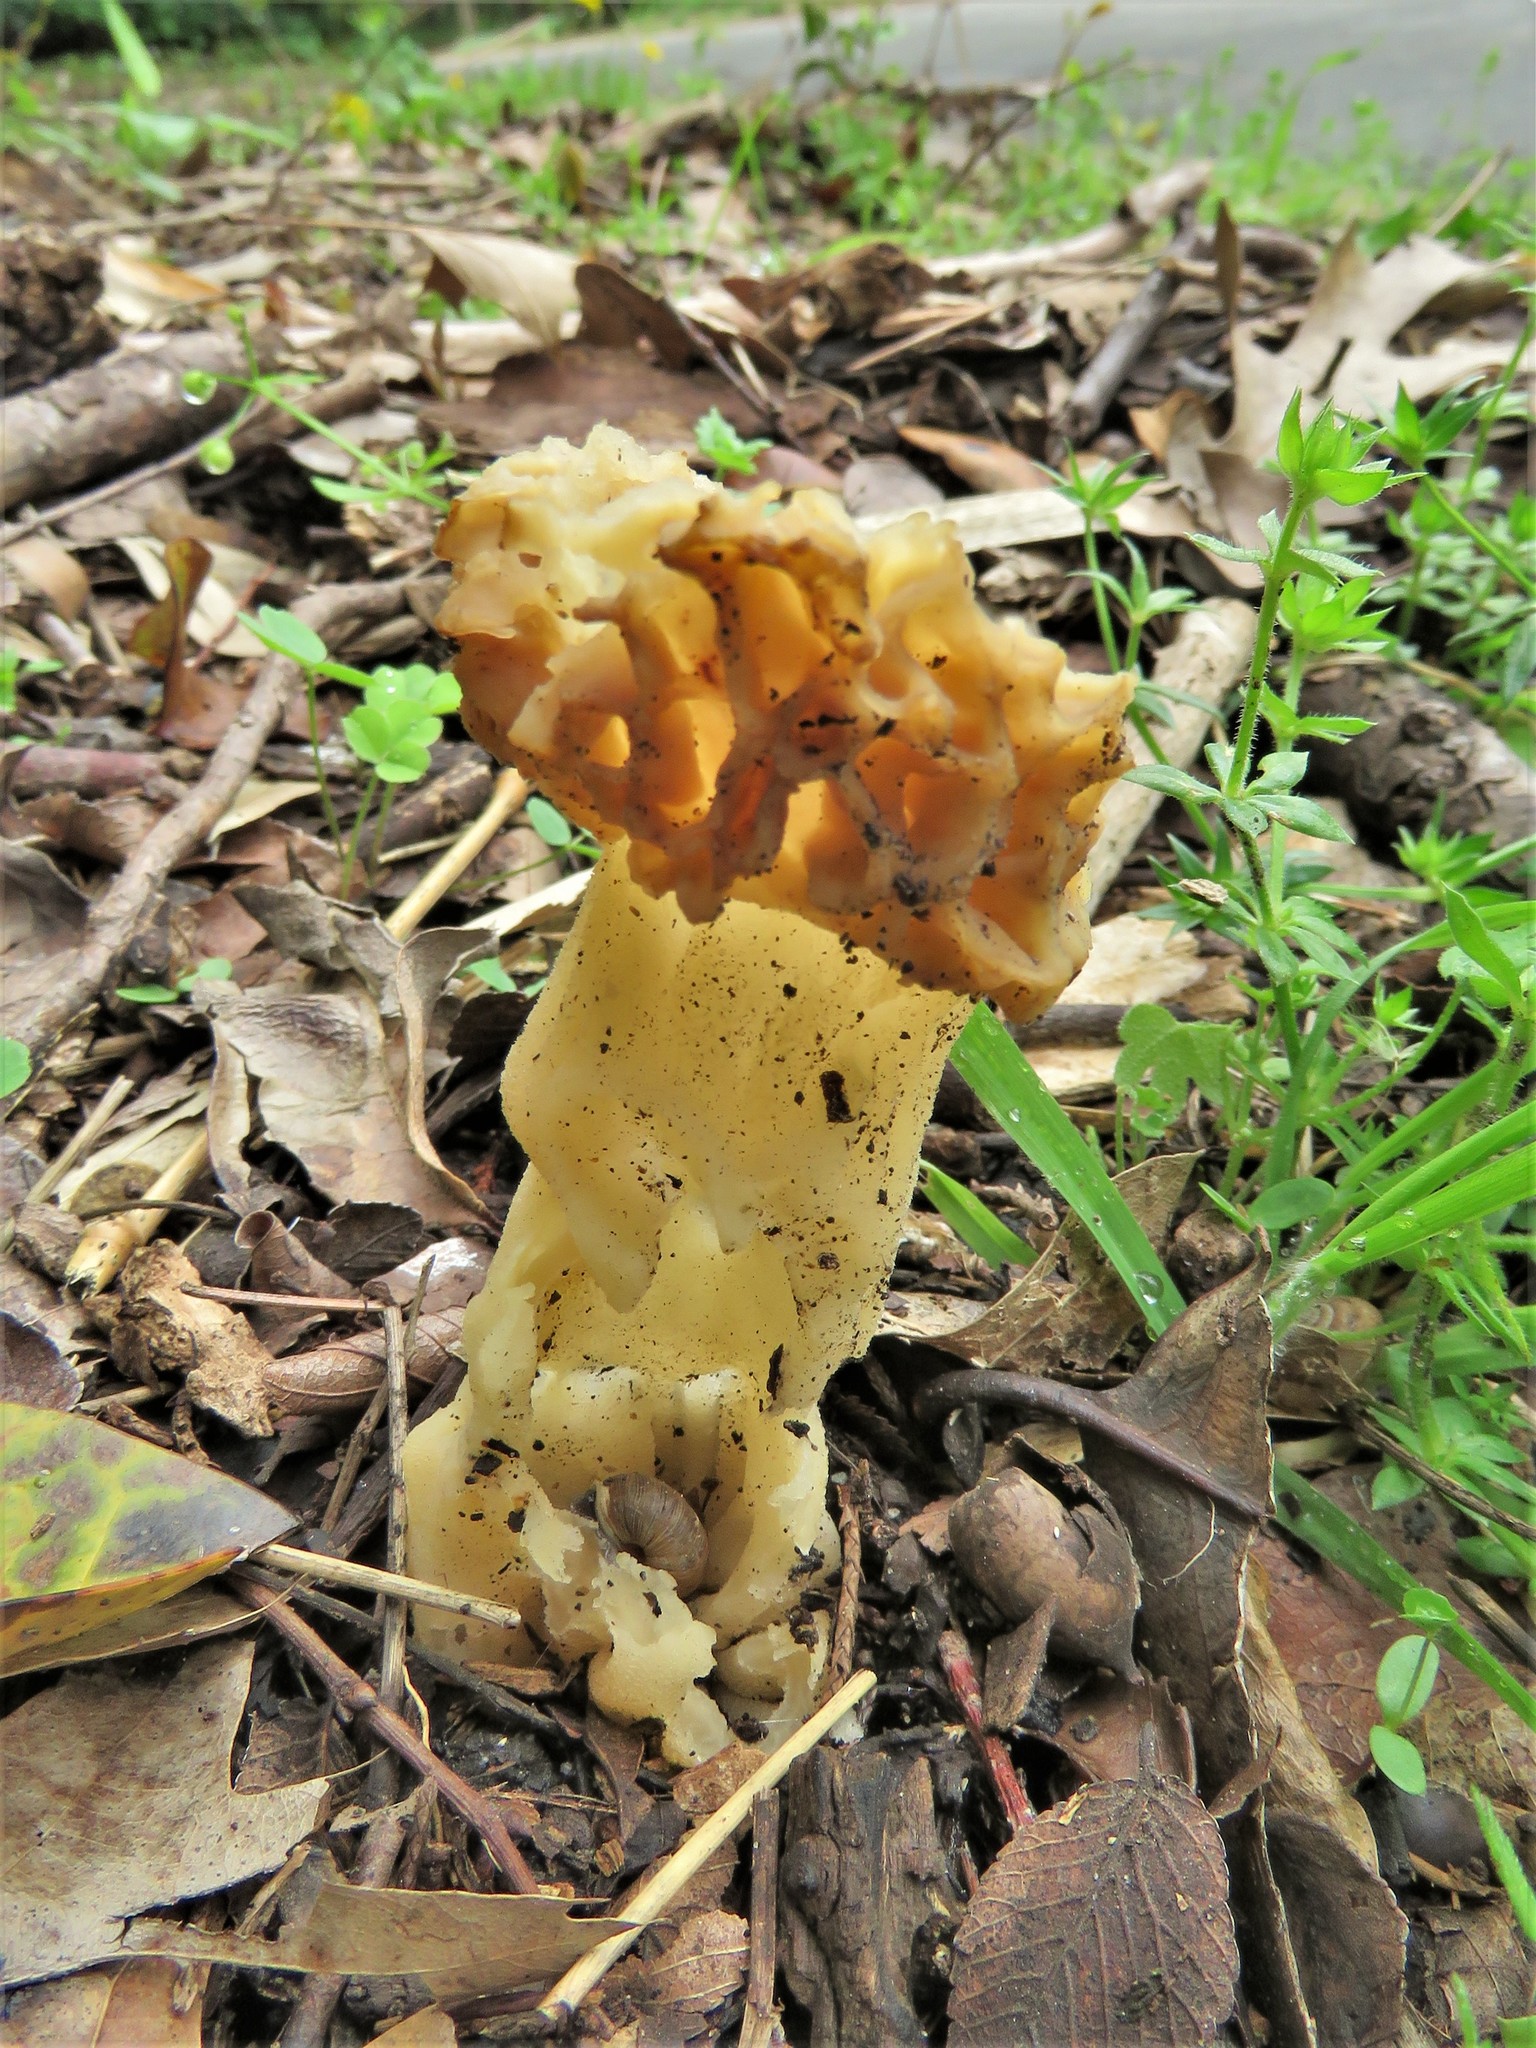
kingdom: Fungi
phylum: Ascomycota
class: Pezizomycetes
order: Pezizales
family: Morchellaceae
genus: Morchella
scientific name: Morchella americana
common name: White morel
